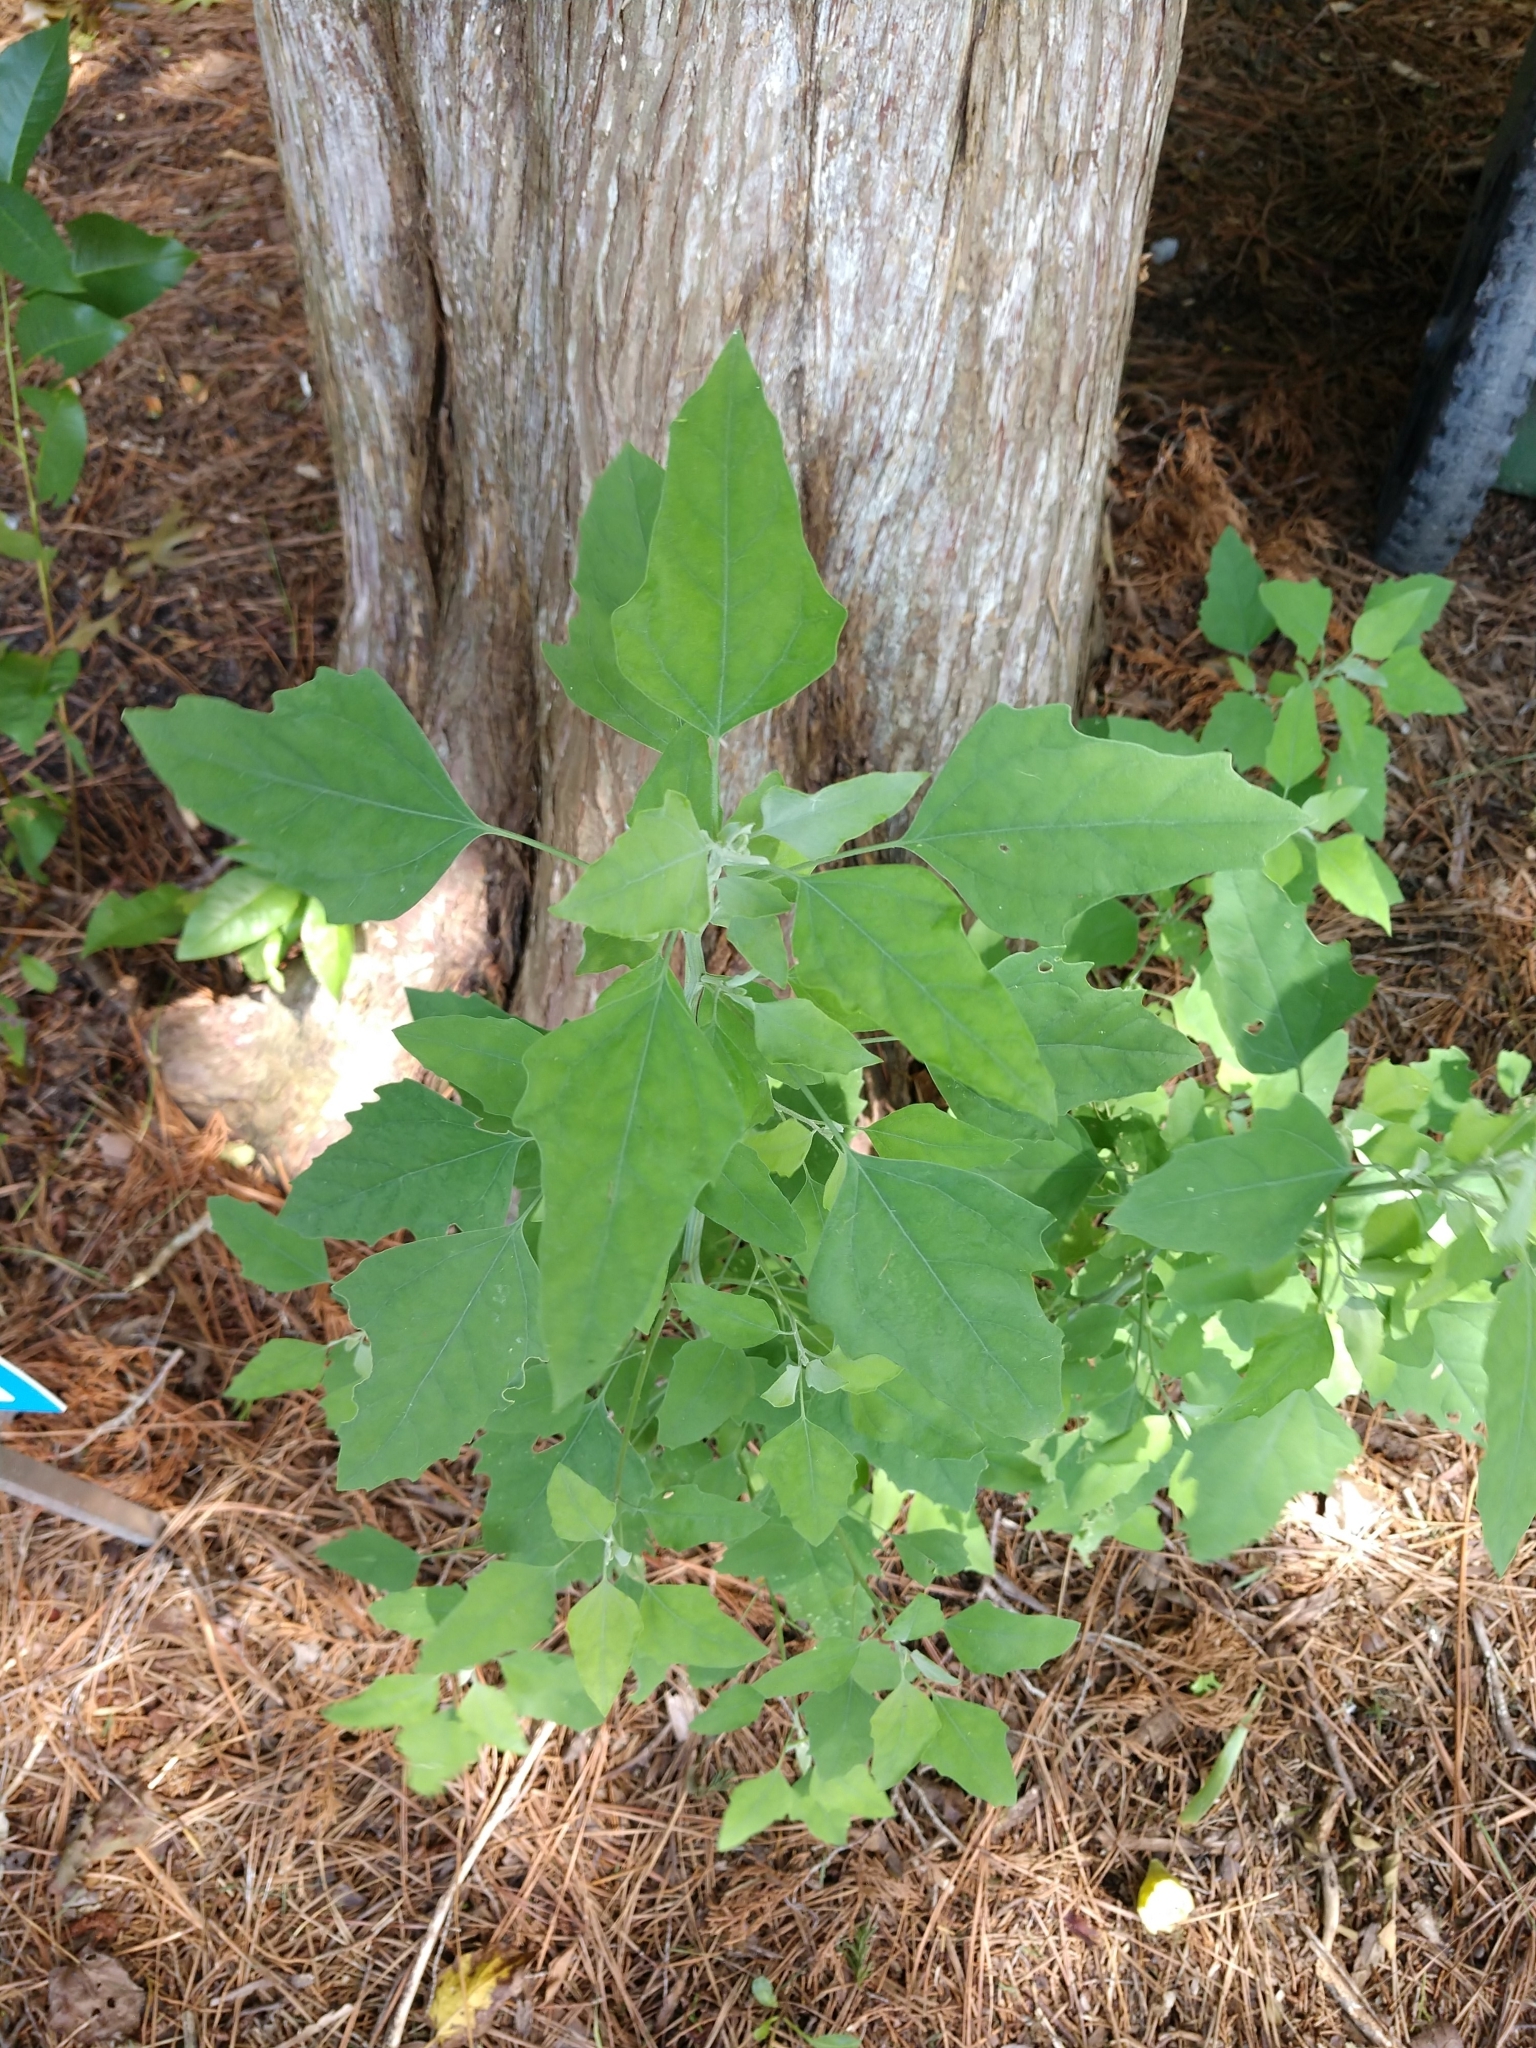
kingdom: Plantae
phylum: Tracheophyta
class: Magnoliopsida
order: Caryophyllales
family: Amaranthaceae
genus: Chenopodium
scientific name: Chenopodium album
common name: Fat-hen
